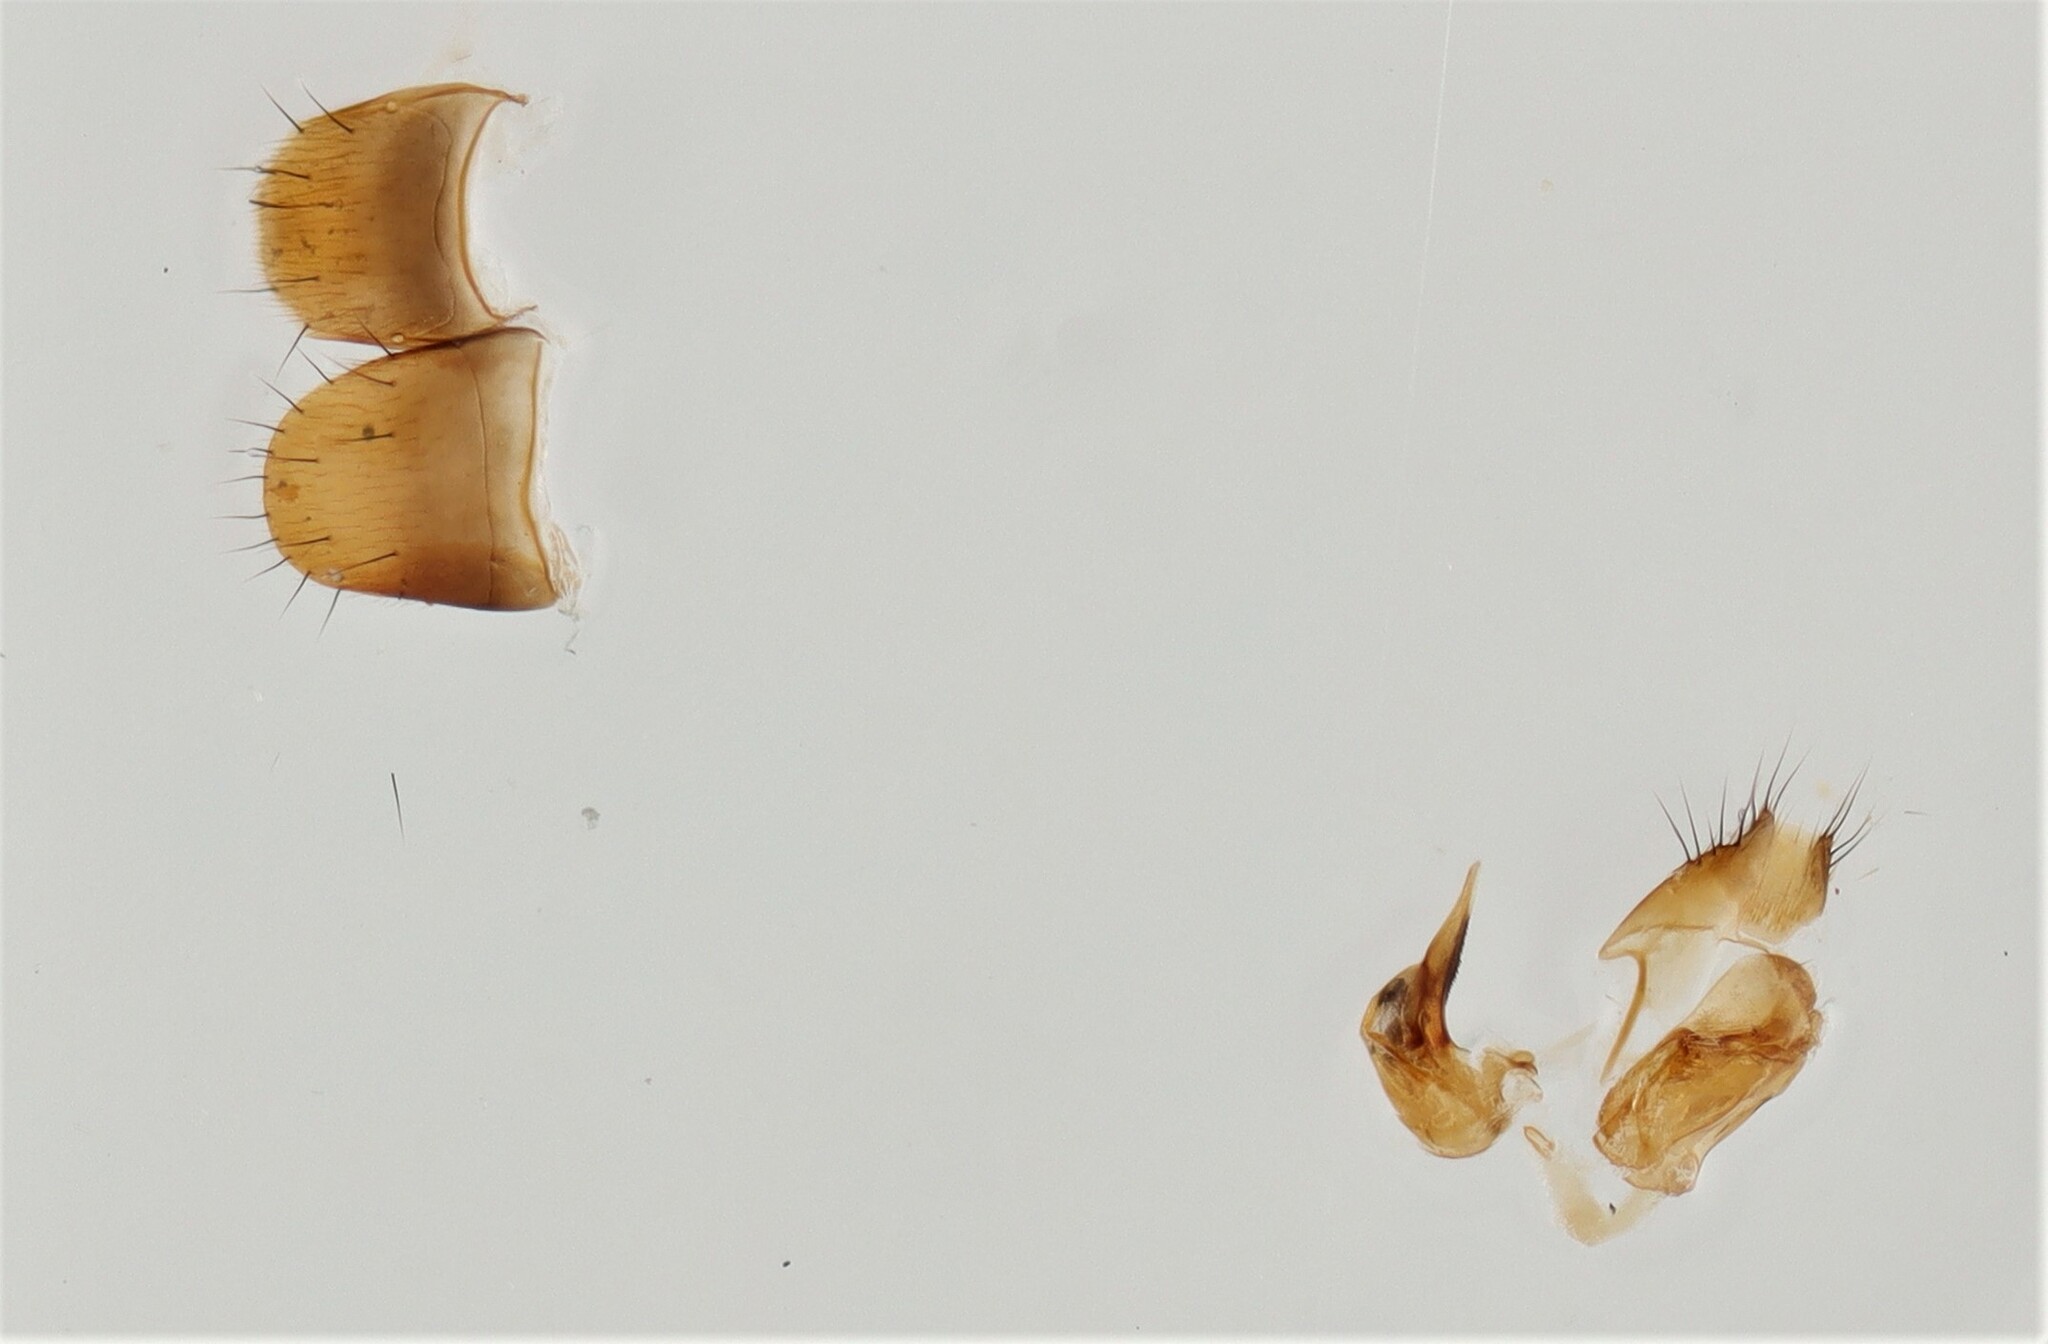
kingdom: Animalia
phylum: Arthropoda
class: Insecta
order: Coleoptera
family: Staphylinidae
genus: Atheta
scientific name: Atheta clemens
